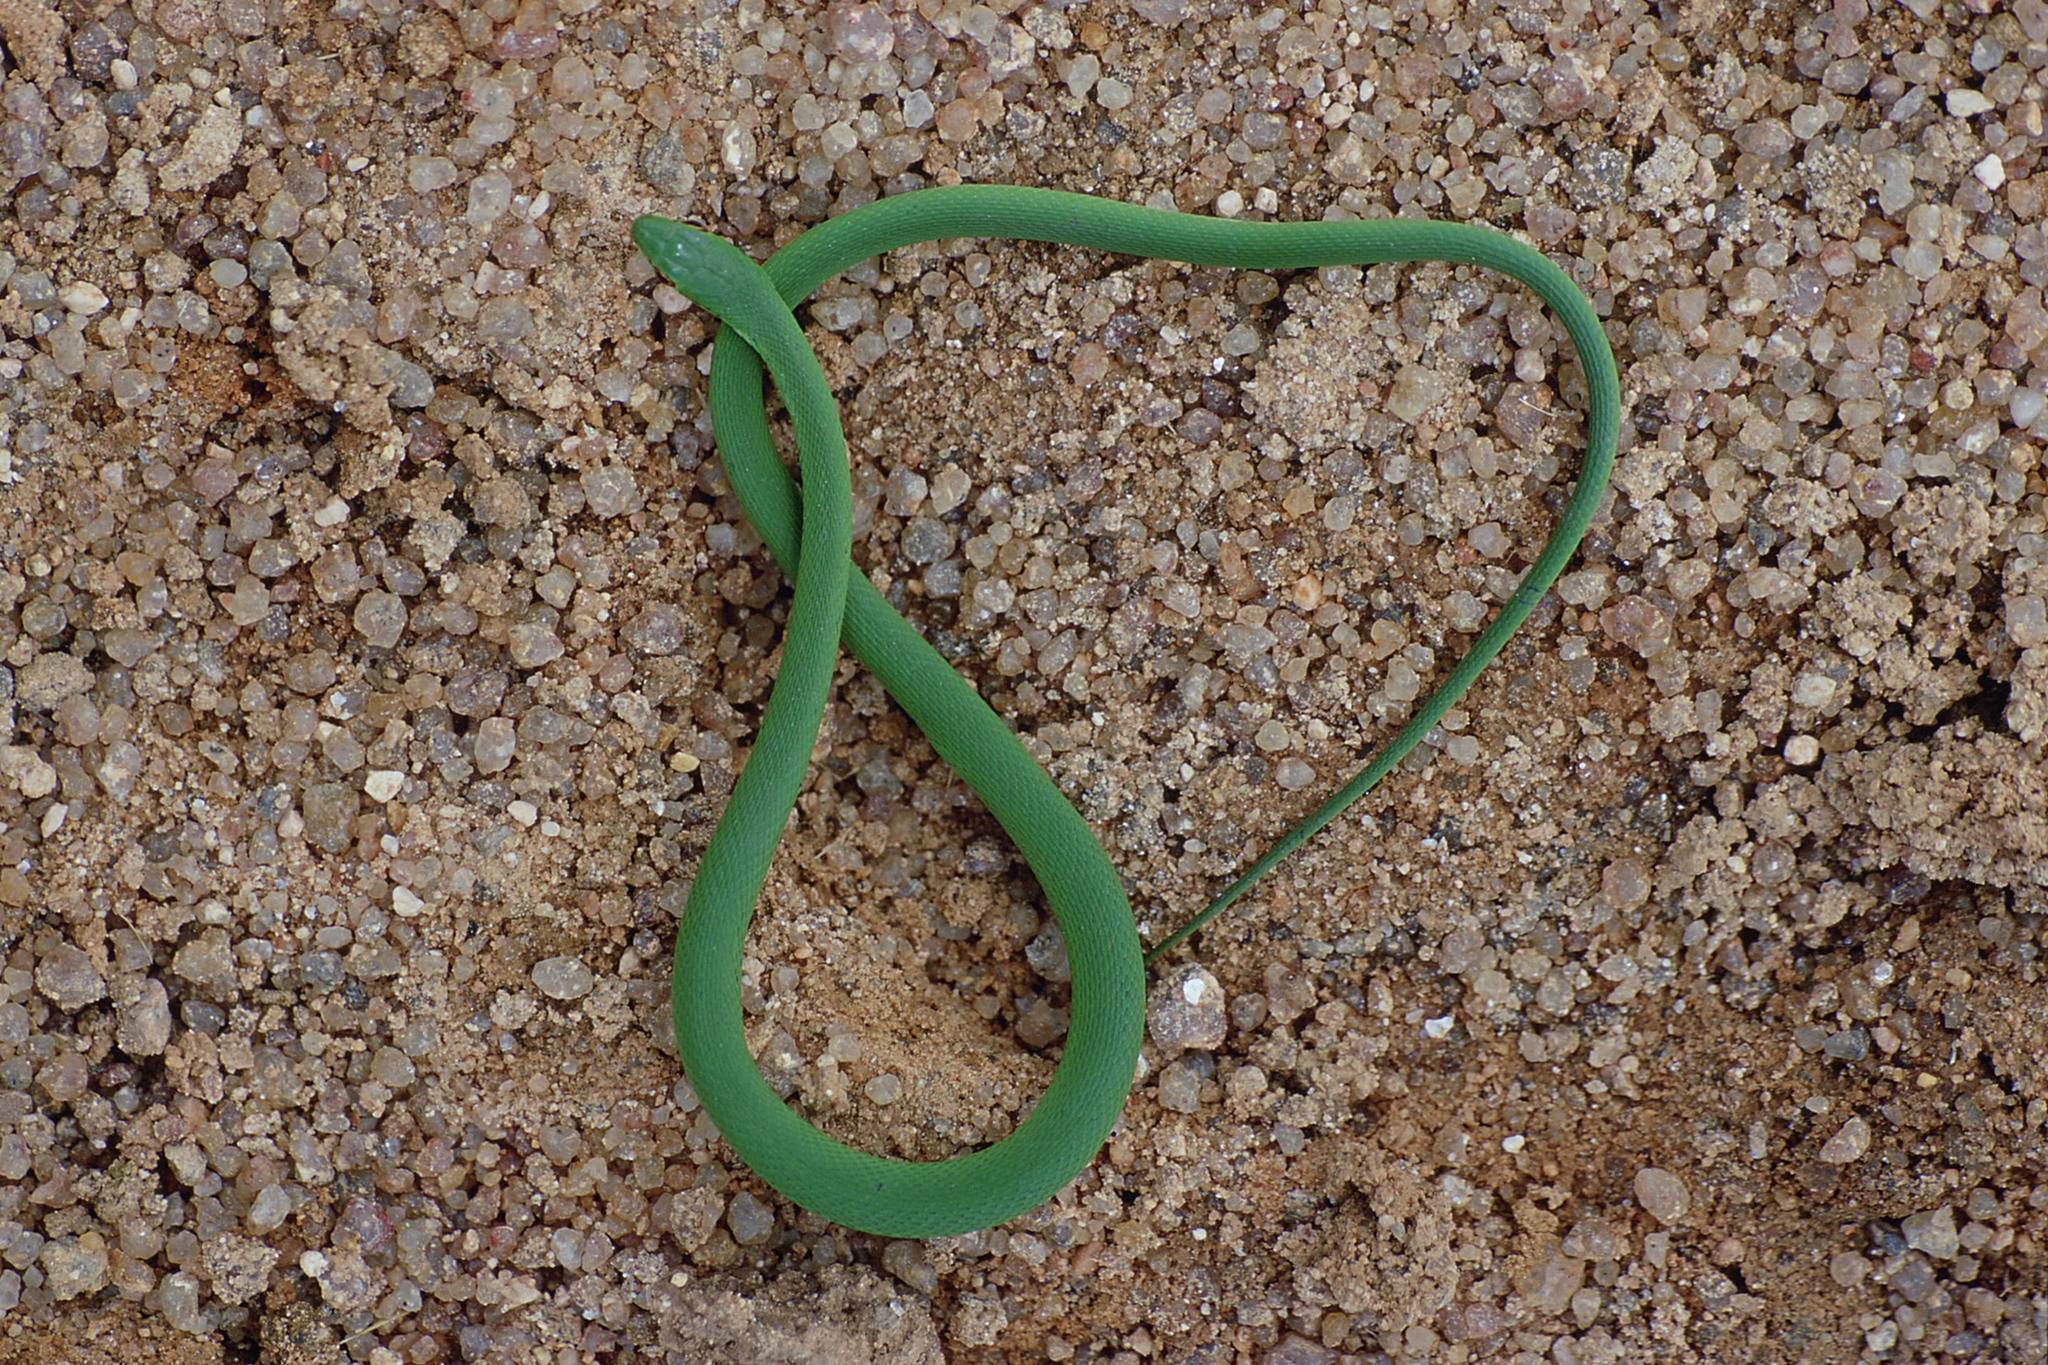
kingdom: Animalia
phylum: Chordata
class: Squamata
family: Colubridae
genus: Philodryas
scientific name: Philodryas aestiva
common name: Brazilian green racer
